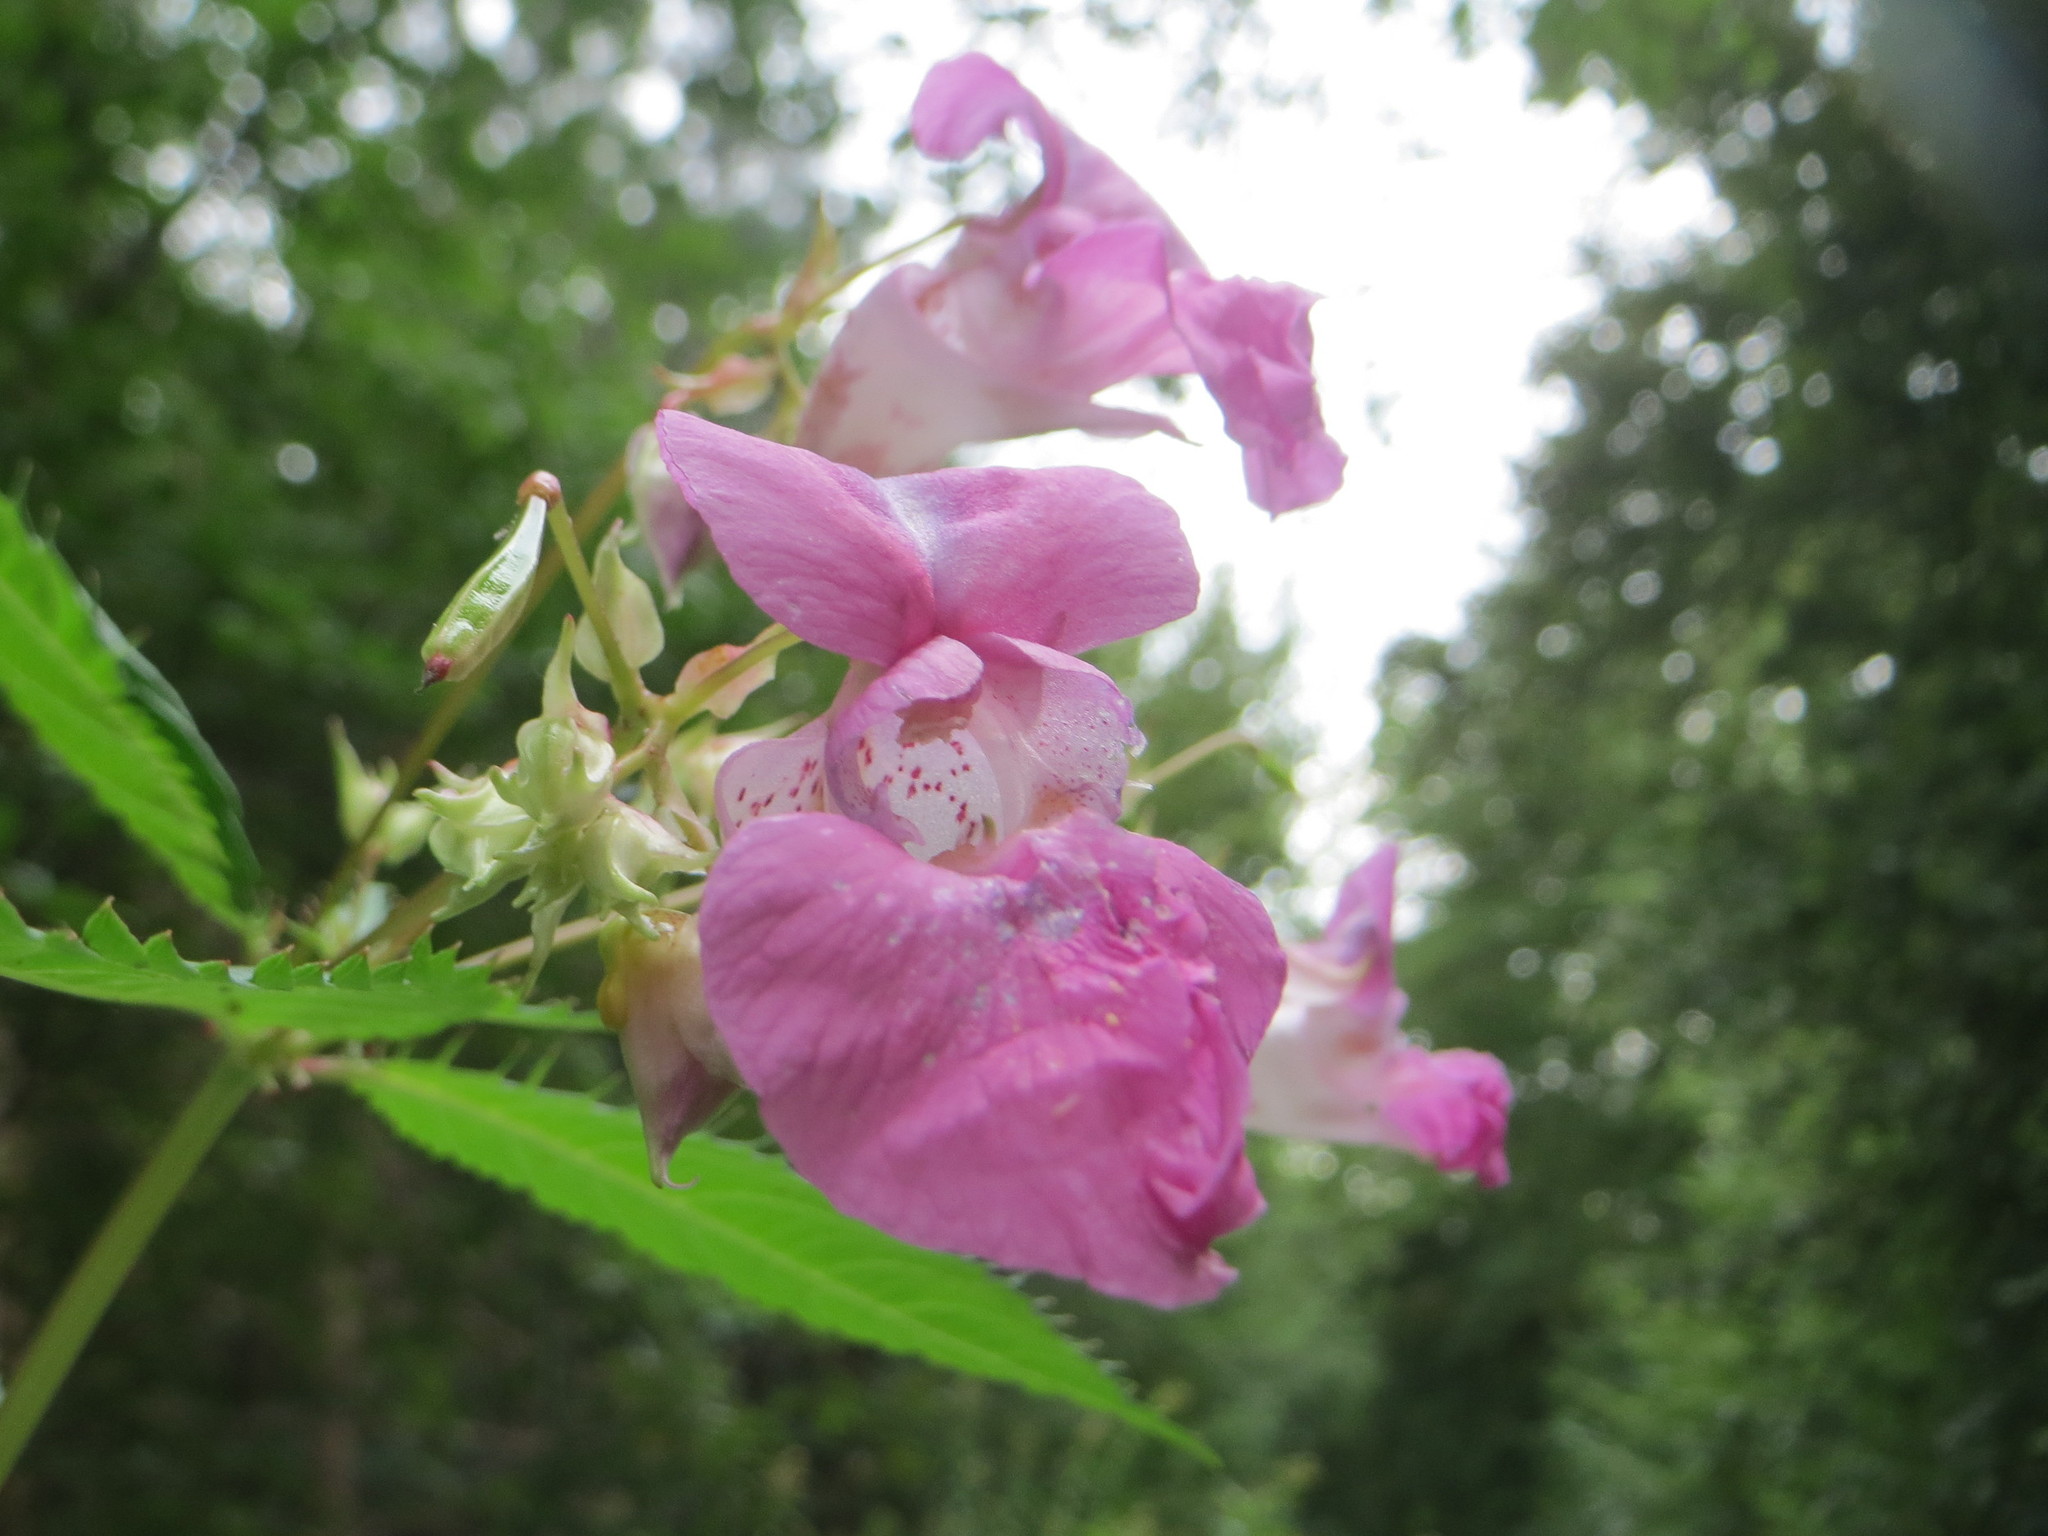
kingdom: Plantae
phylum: Tracheophyta
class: Magnoliopsida
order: Ericales
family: Balsaminaceae
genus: Impatiens
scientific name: Impatiens glandulifera
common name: Himalayan balsam
